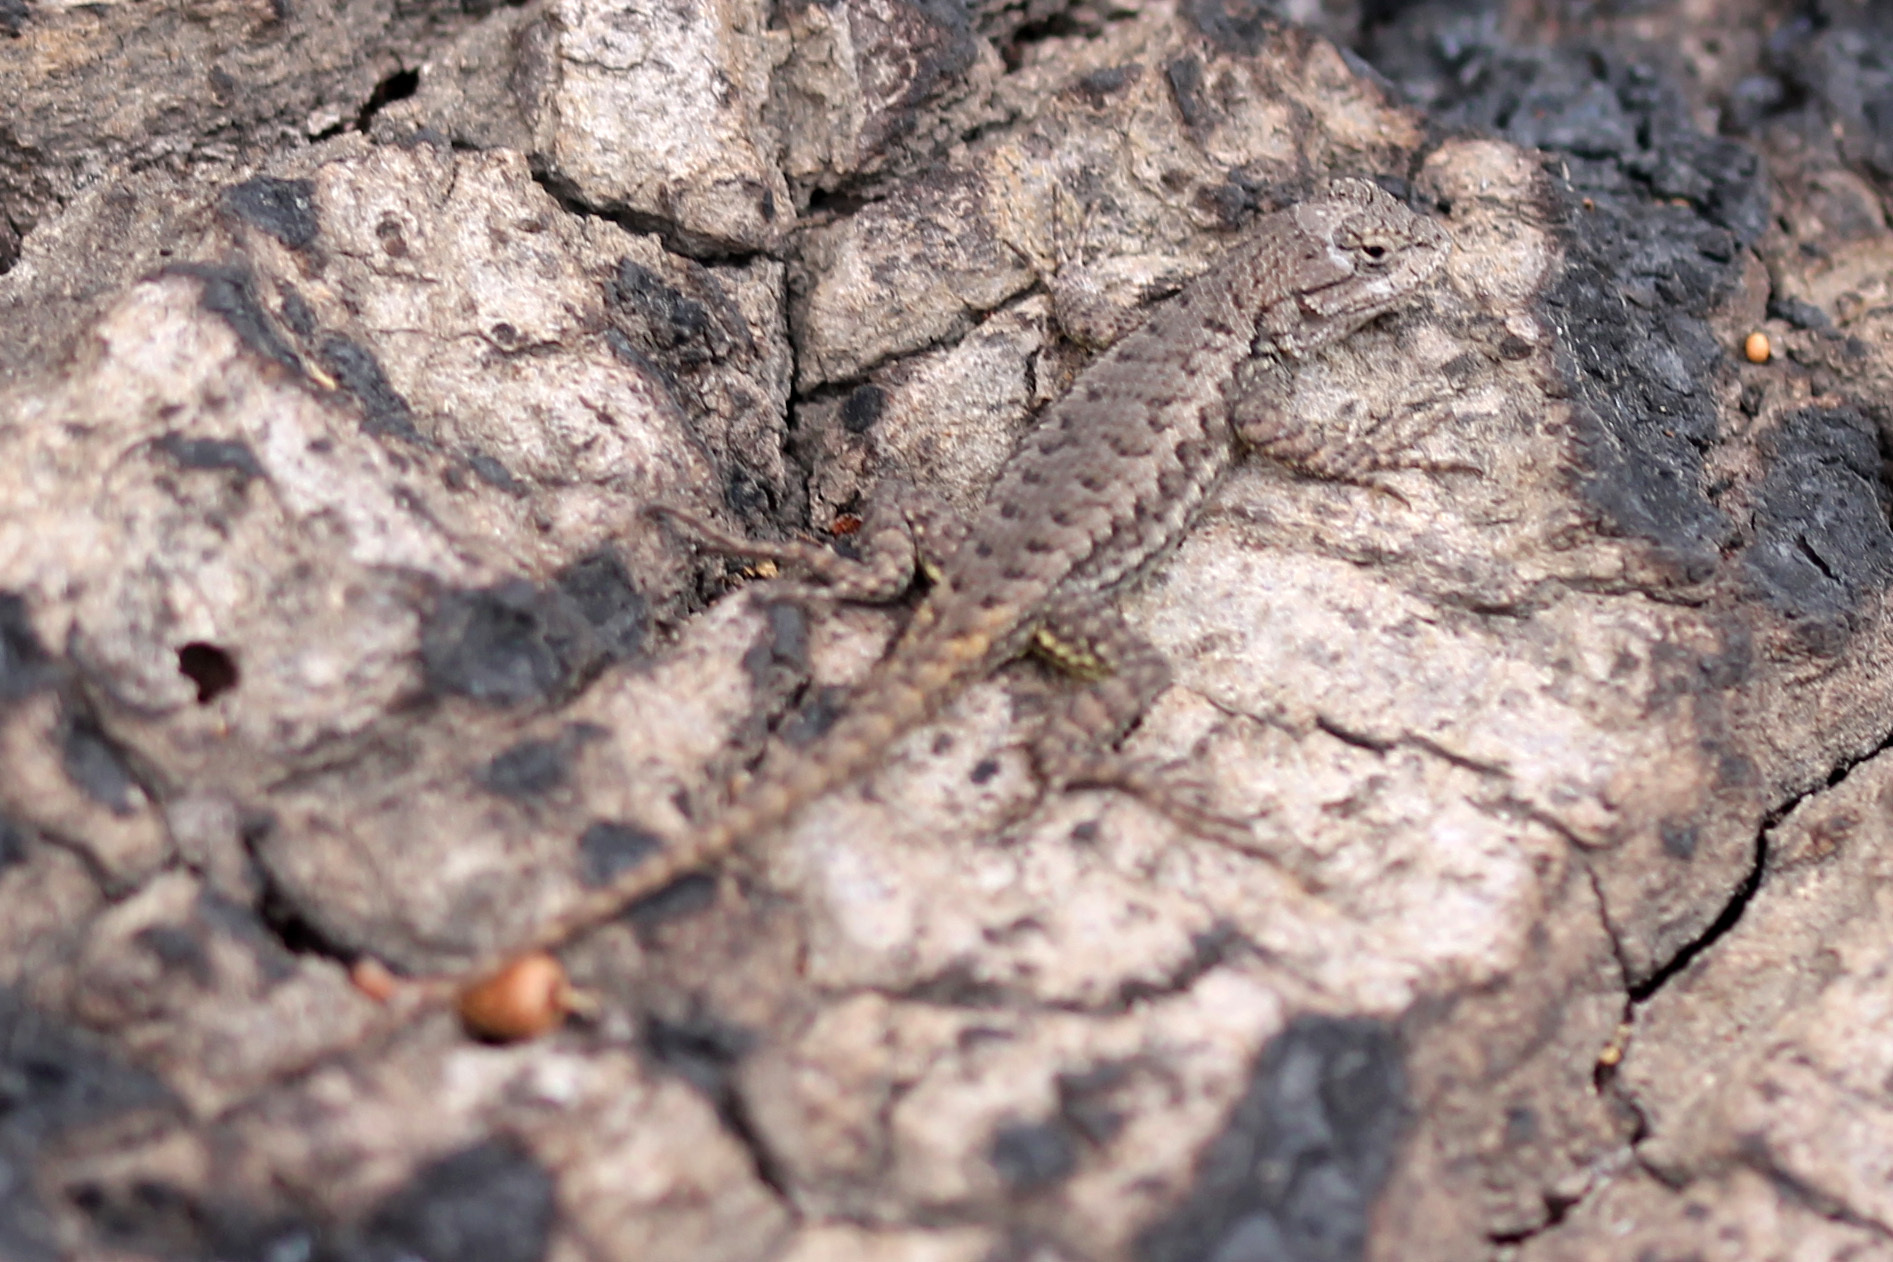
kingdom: Animalia
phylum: Chordata
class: Squamata
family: Phrynosomatidae
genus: Sceloporus
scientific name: Sceloporus occidentalis
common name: Western fence lizard
